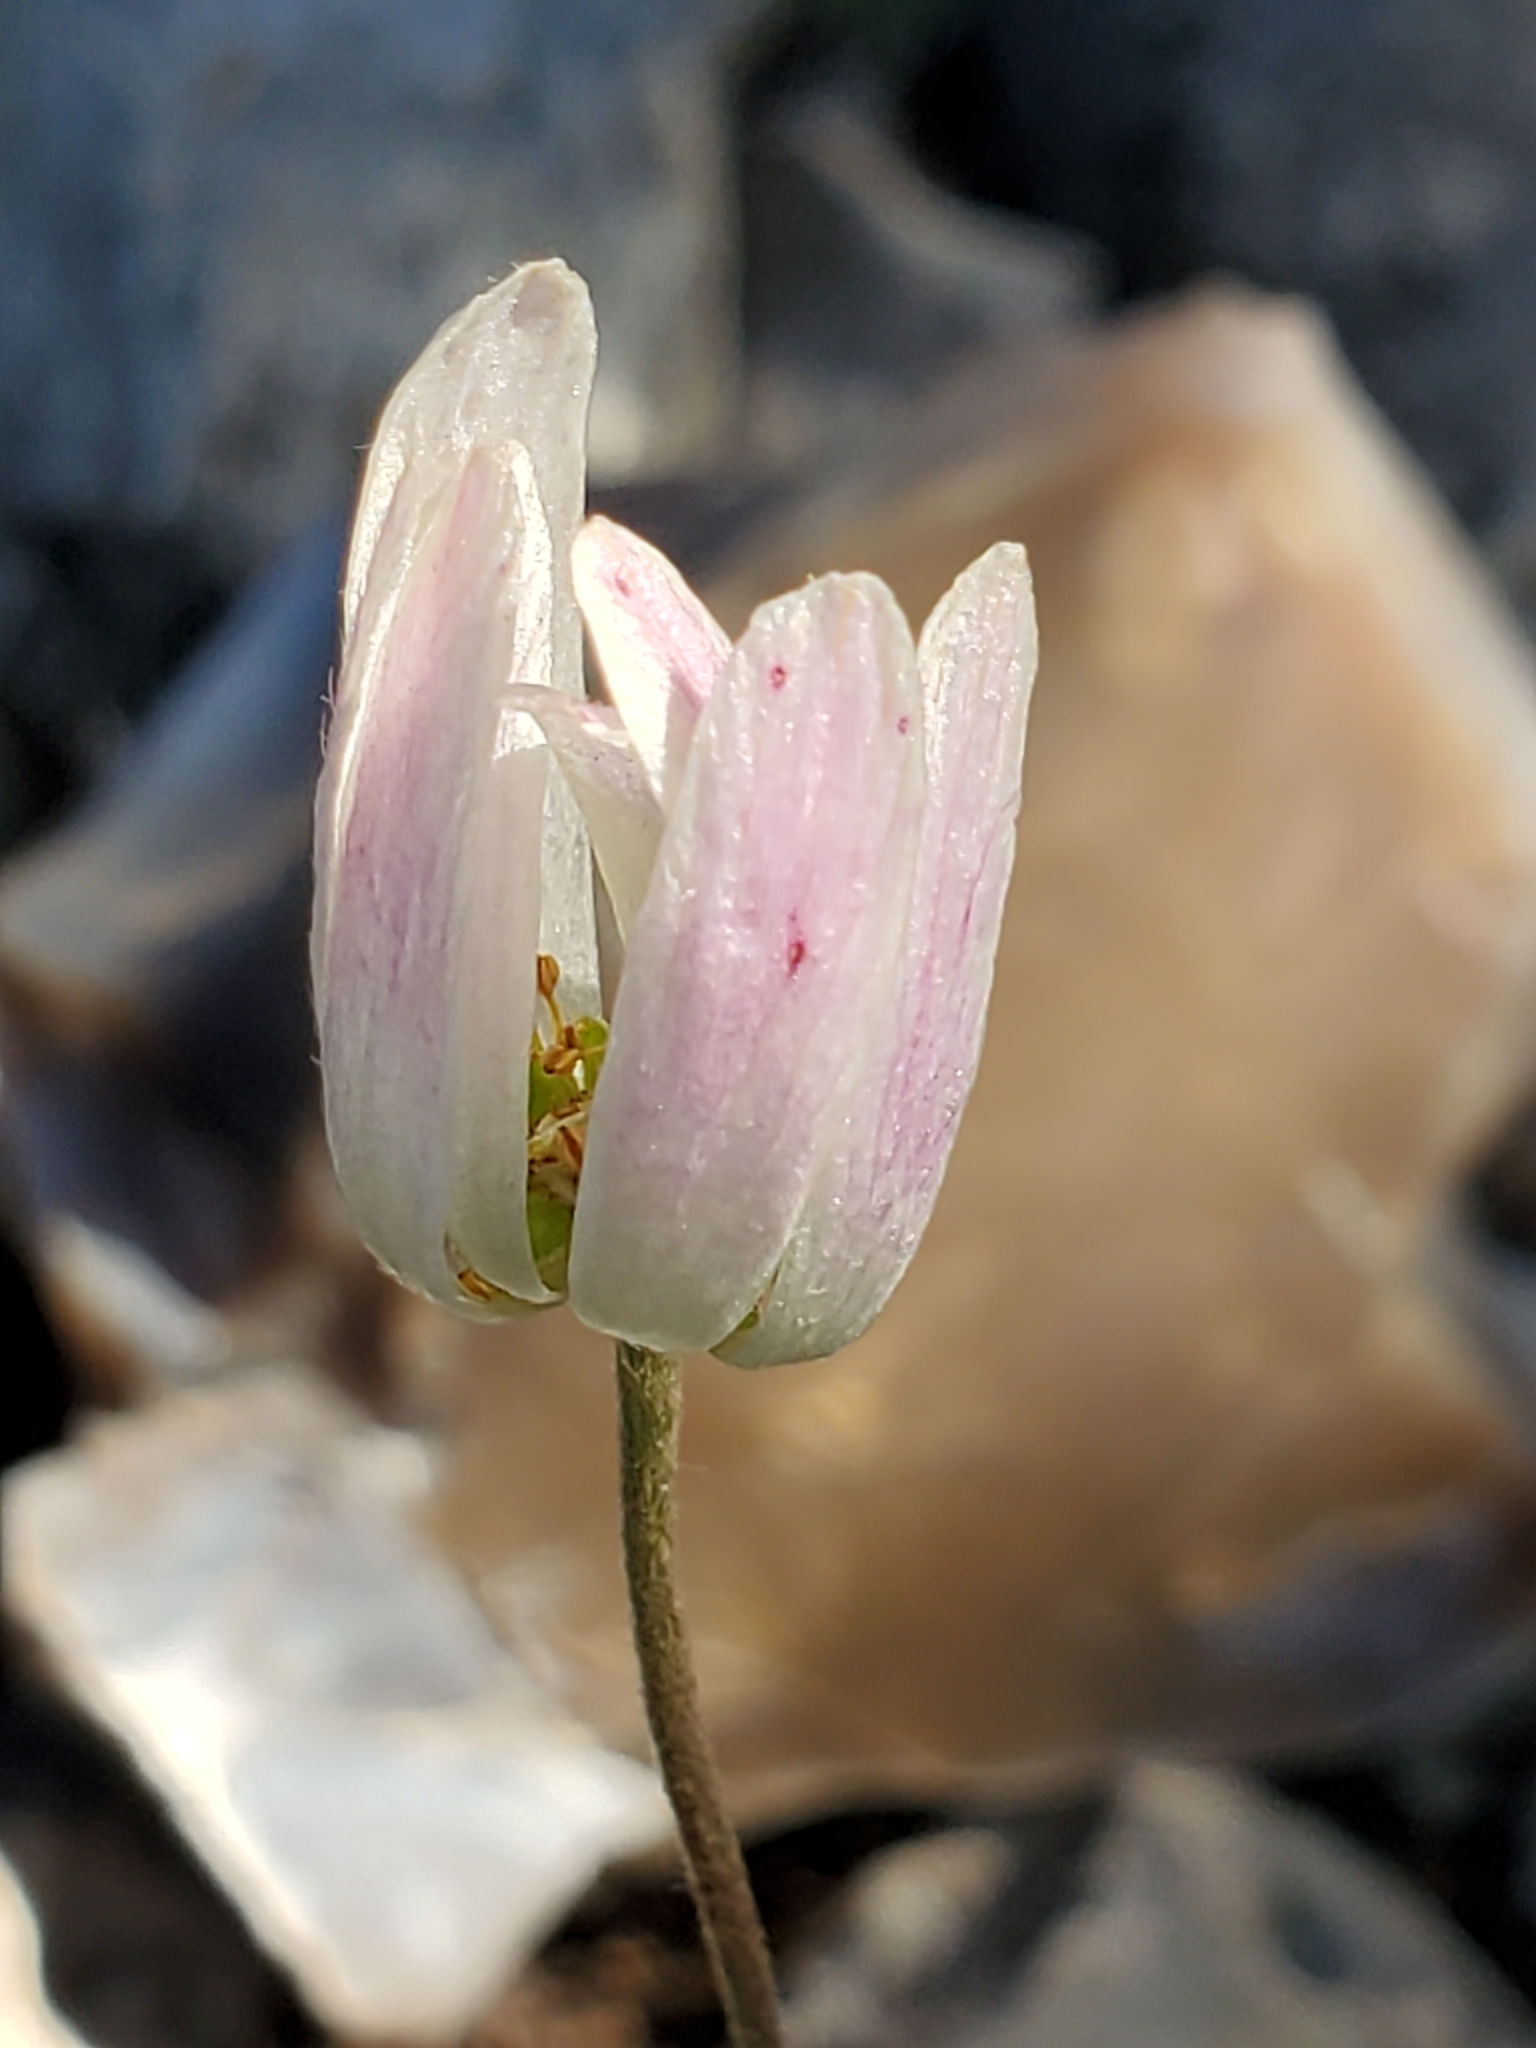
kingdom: Plantae
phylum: Tracheophyta
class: Magnoliopsida
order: Ranunculales
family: Ranunculaceae
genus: Anemone
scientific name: Anemone edwardsiana
